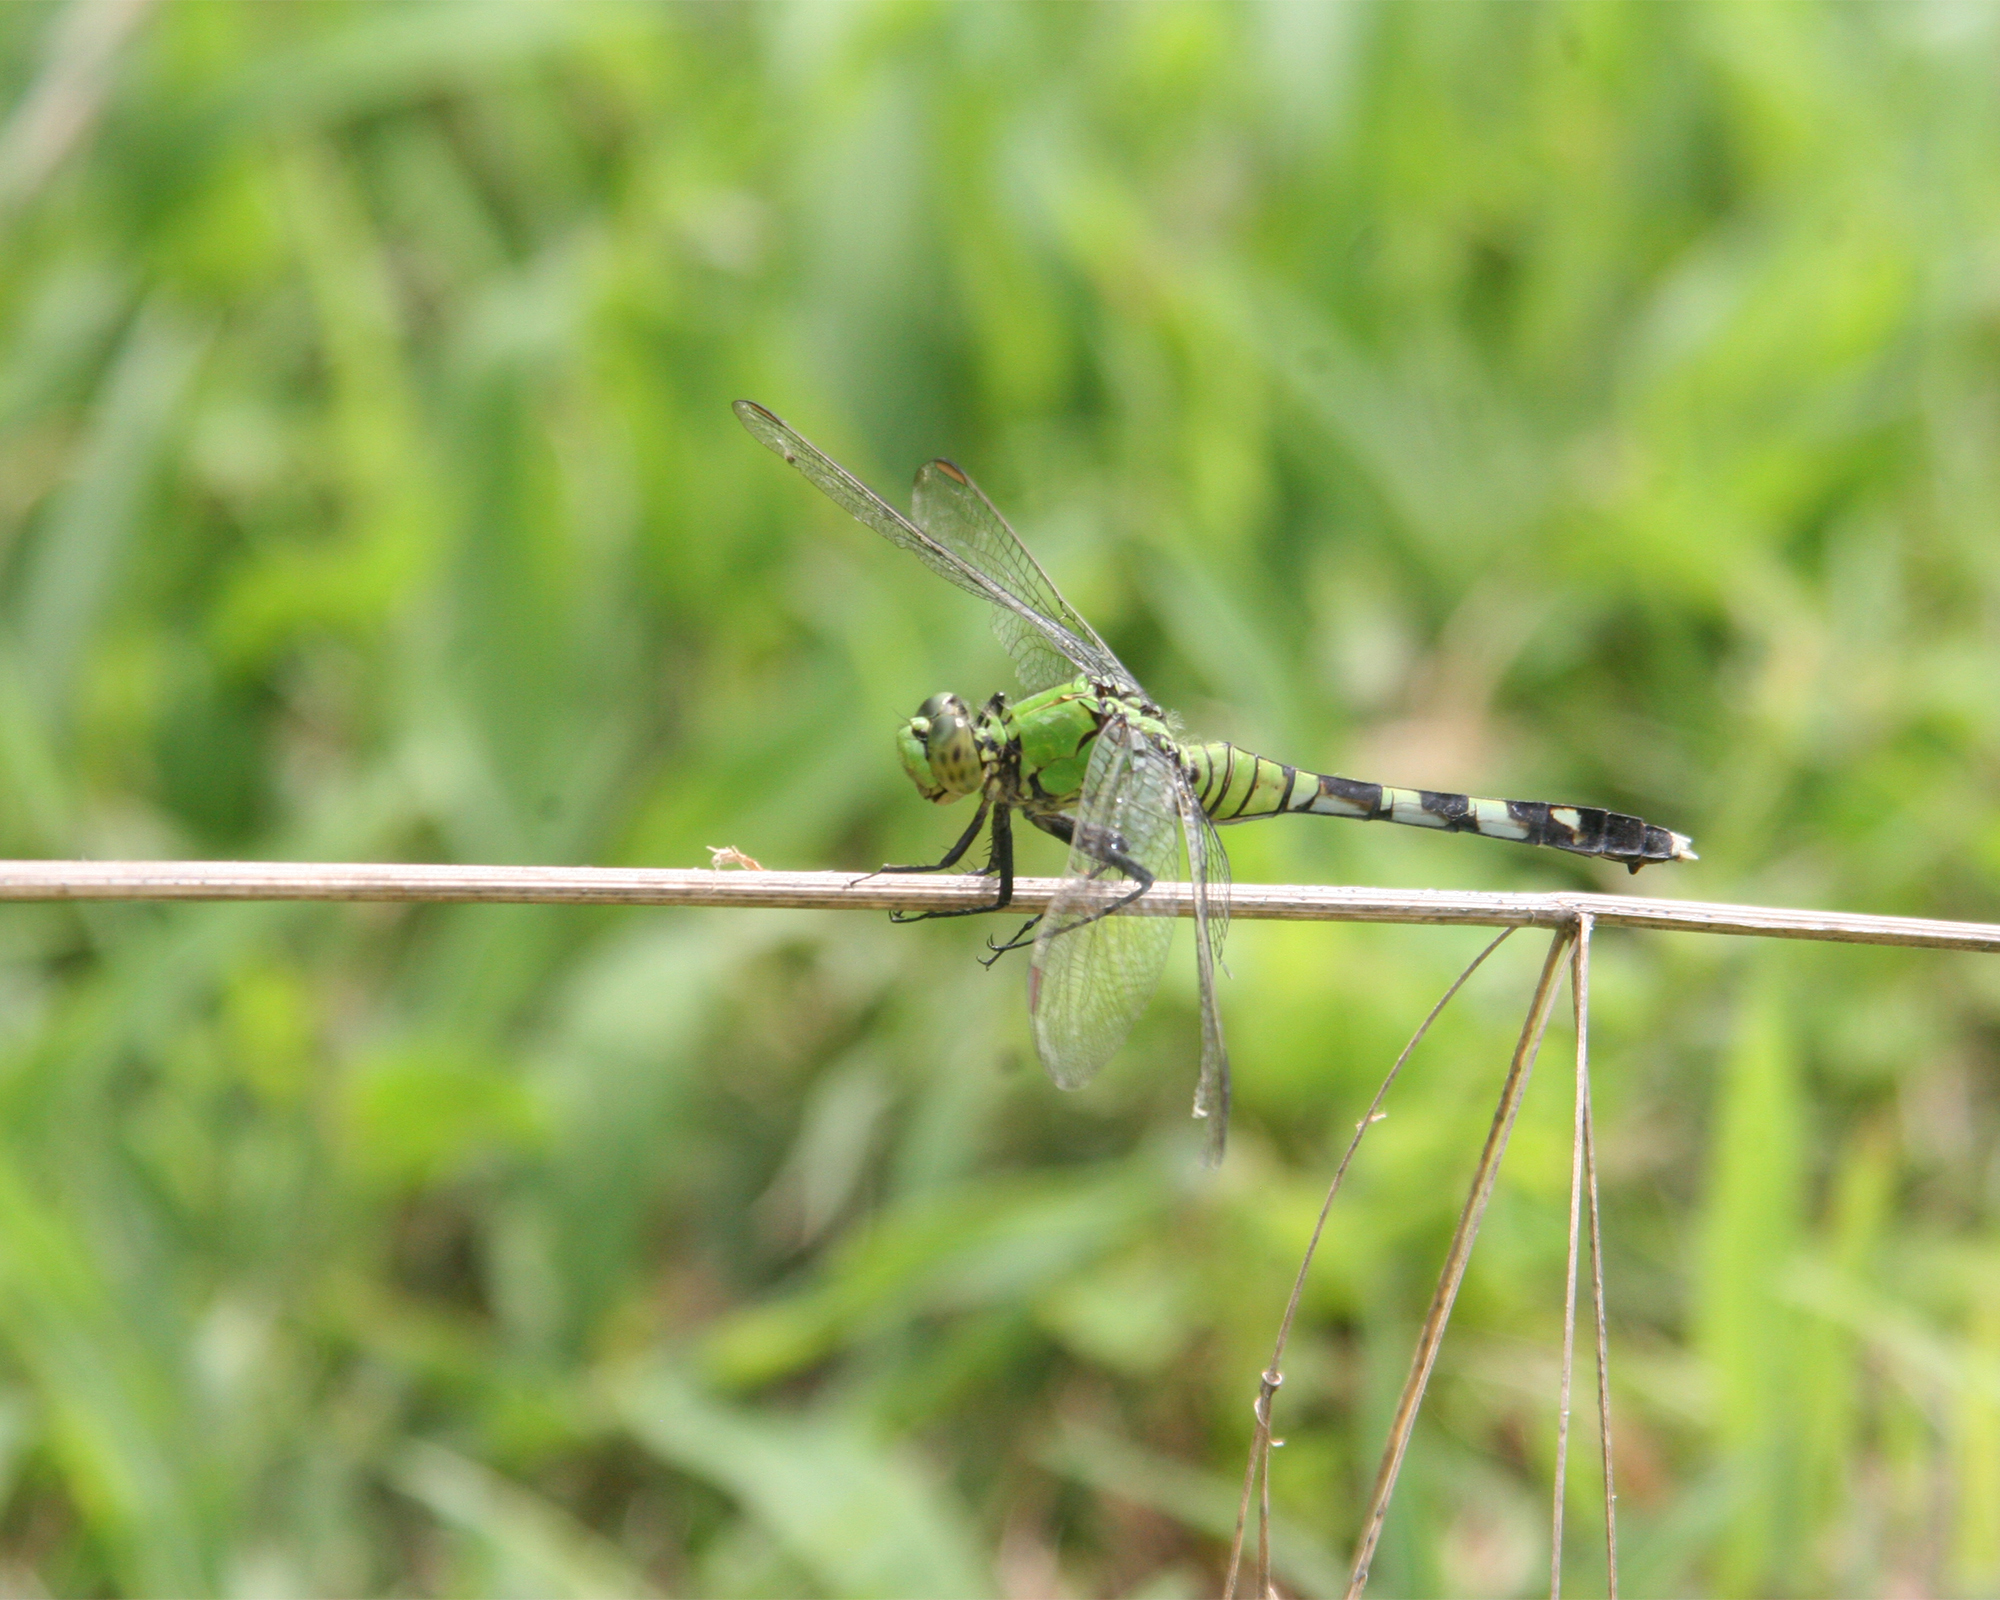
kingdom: Animalia
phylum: Arthropoda
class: Insecta
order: Odonata
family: Libellulidae
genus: Erythemis
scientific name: Erythemis simplicicollis
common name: Eastern pondhawk
